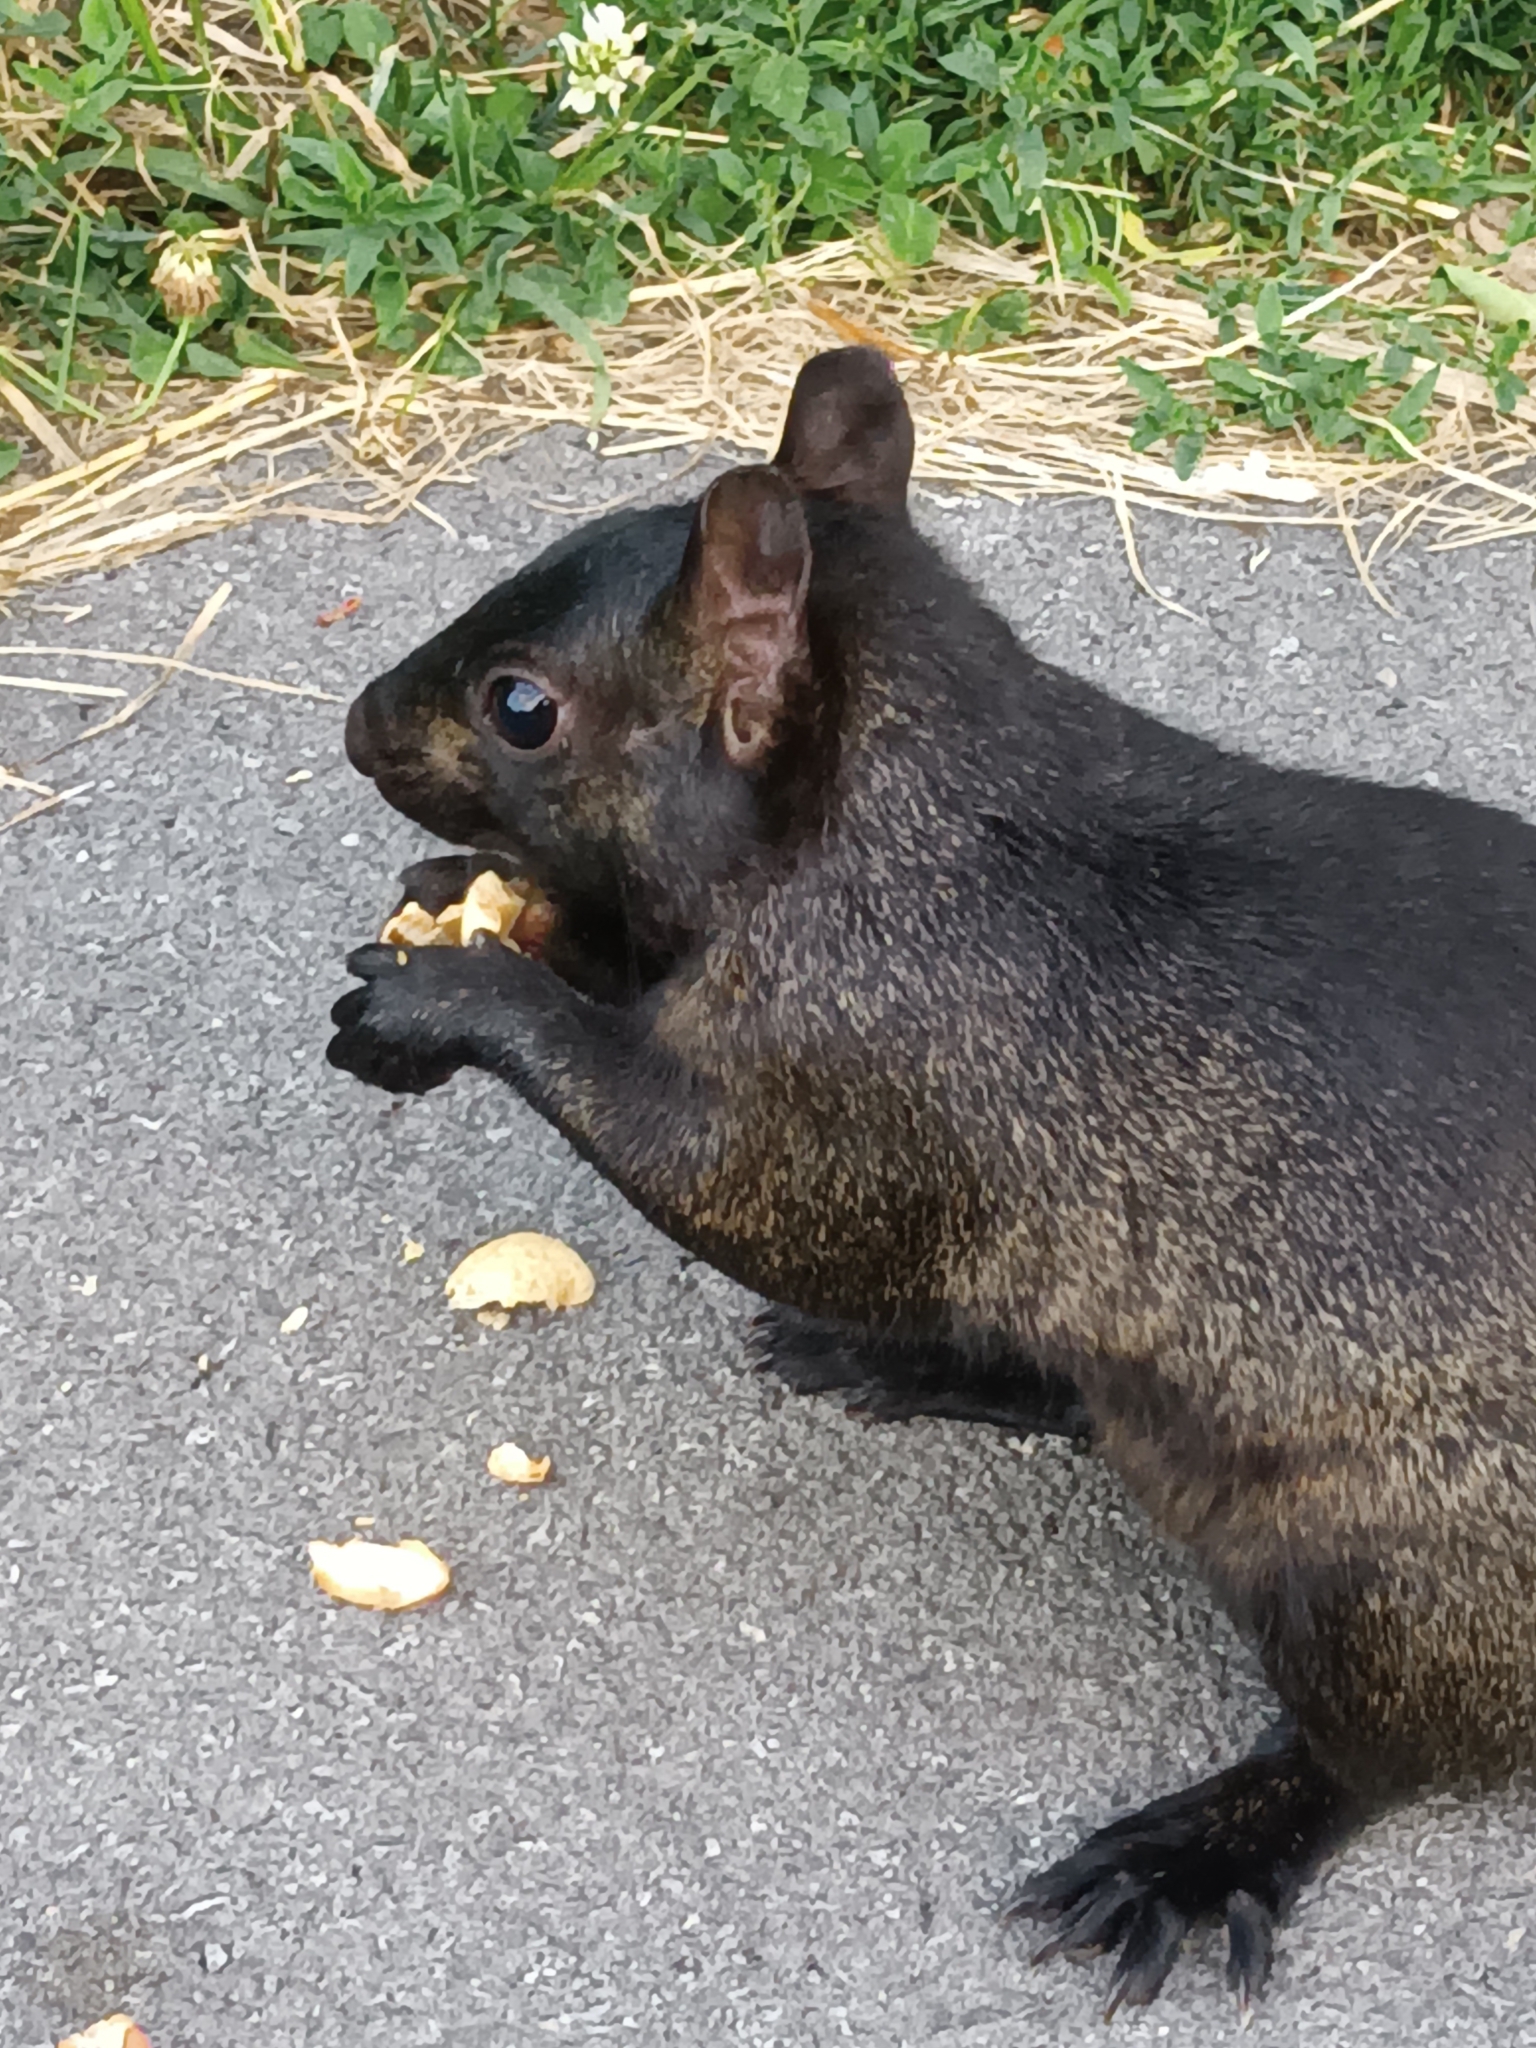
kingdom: Animalia
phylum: Chordata
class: Mammalia
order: Rodentia
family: Sciuridae
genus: Sciurus
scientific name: Sciurus carolinensis
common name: Eastern gray squirrel
